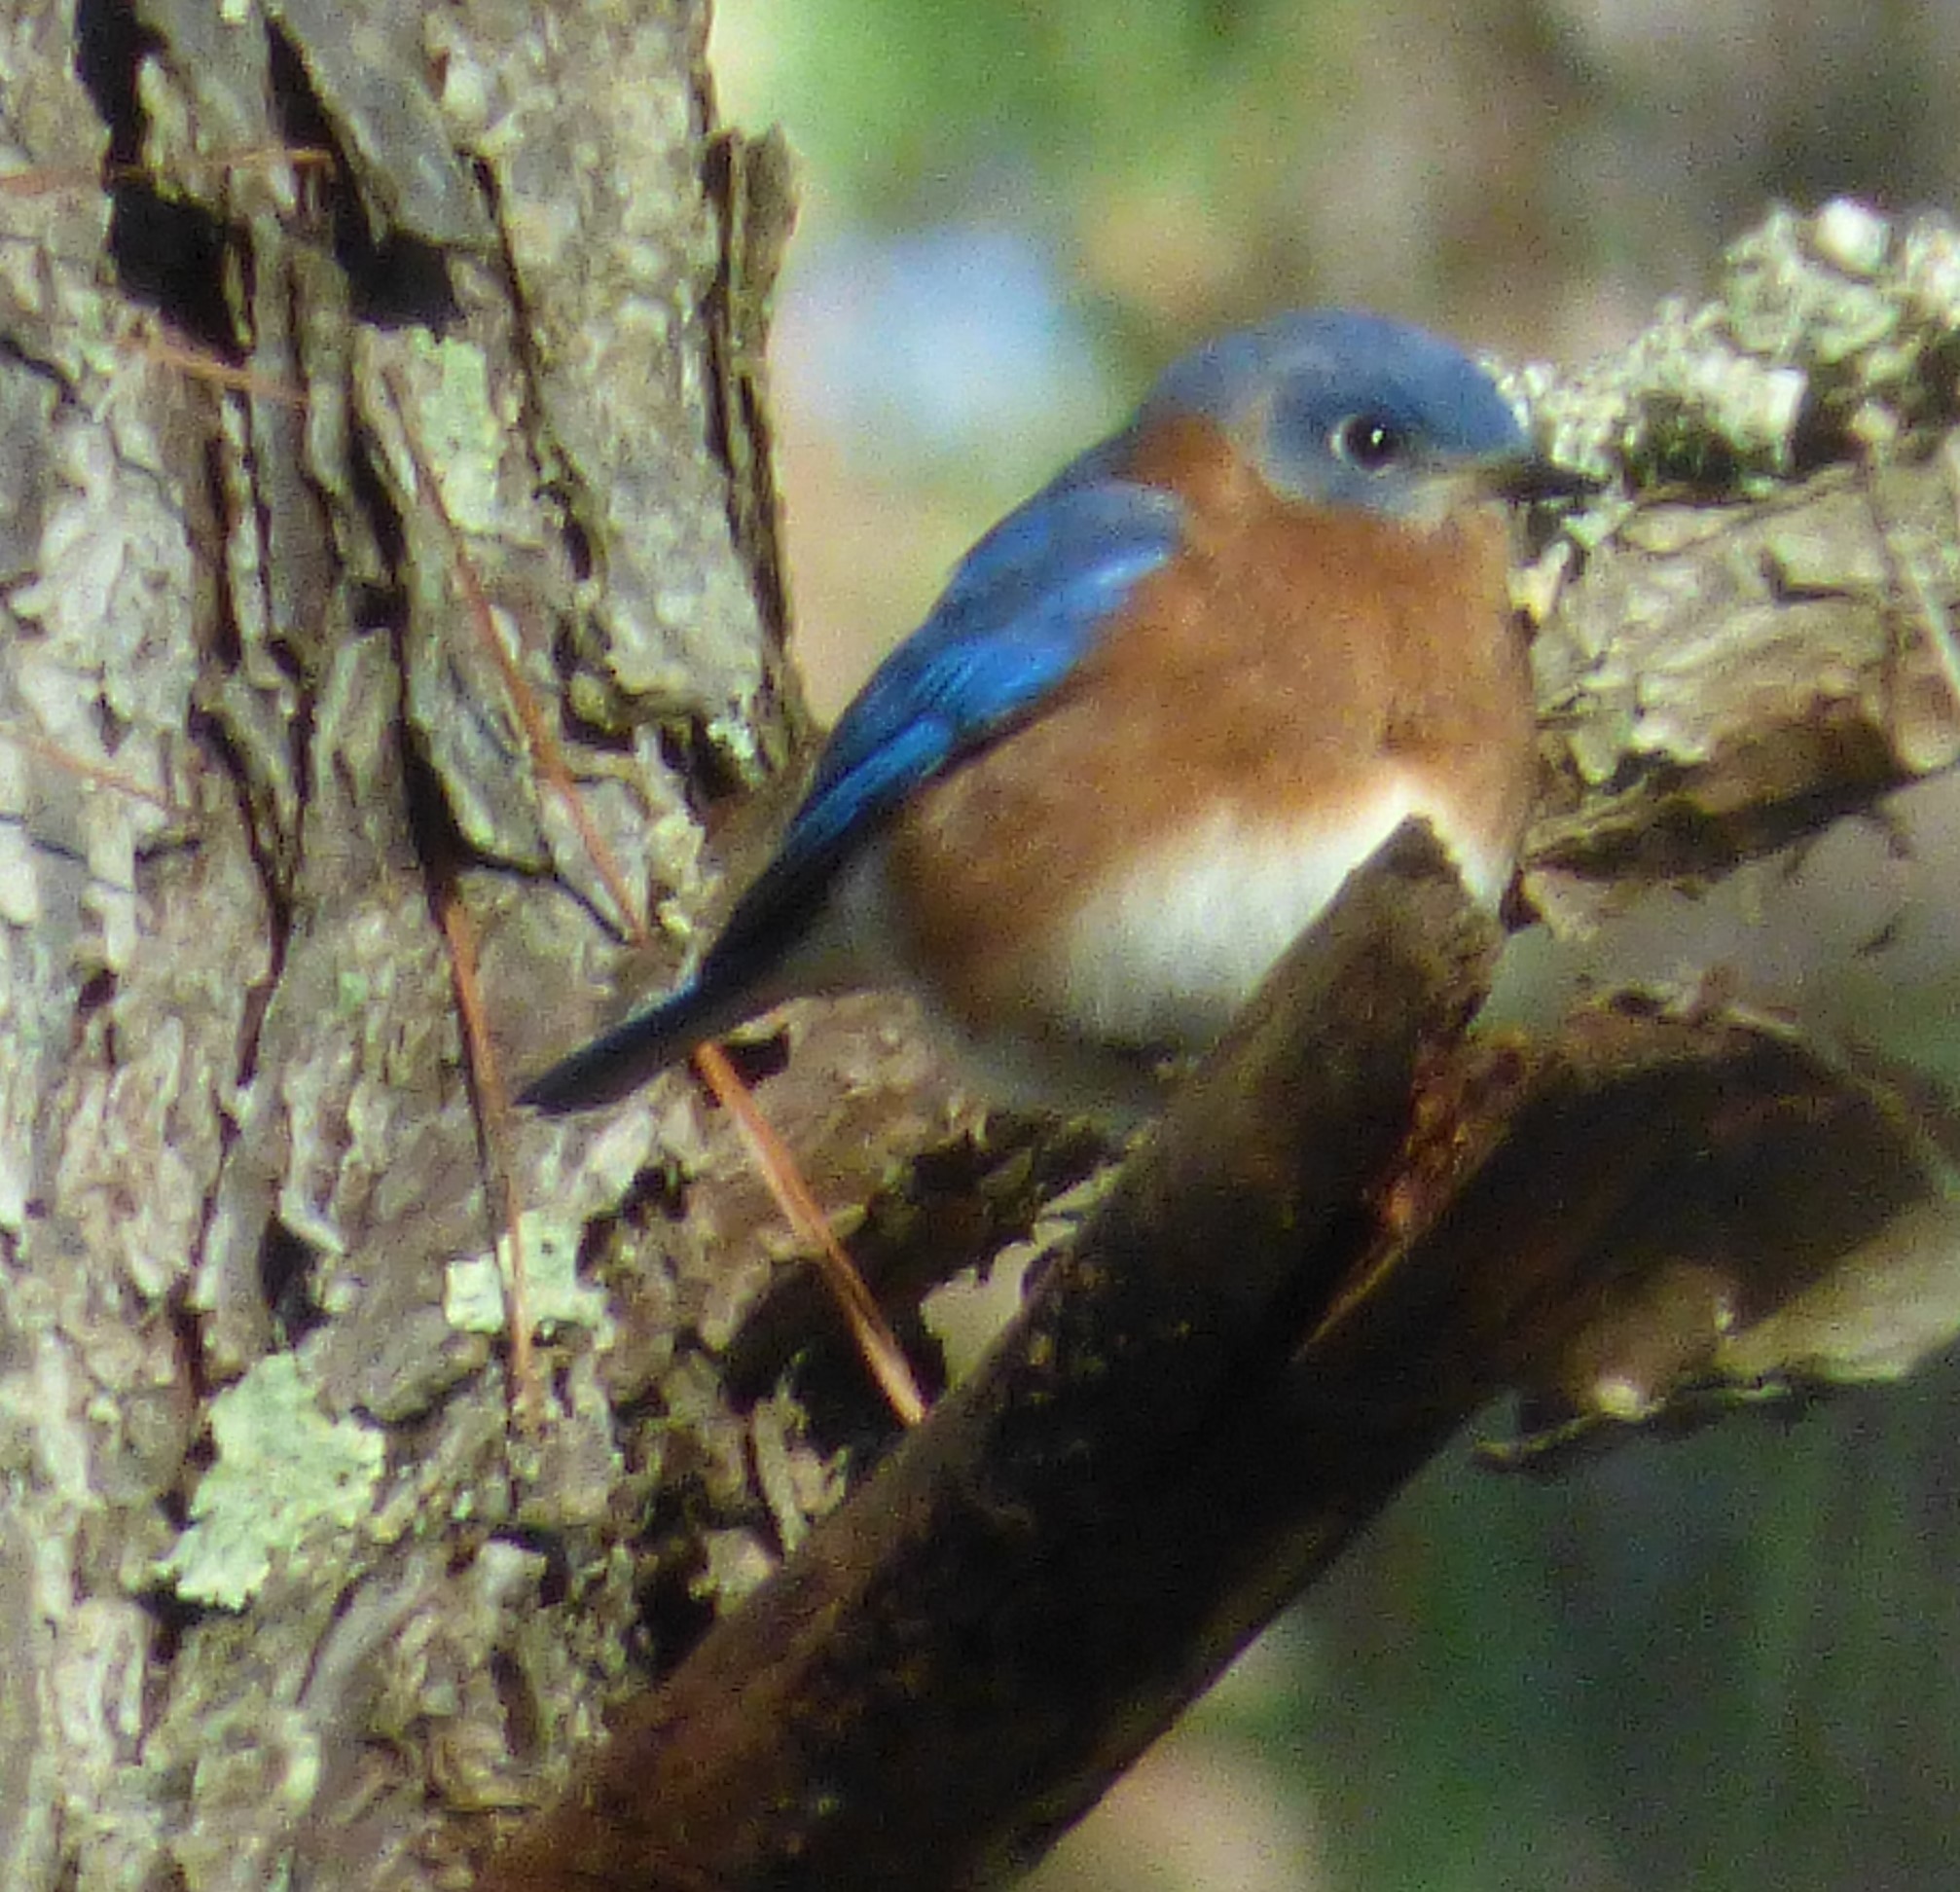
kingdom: Animalia
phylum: Chordata
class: Aves
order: Passeriformes
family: Turdidae
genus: Sialia
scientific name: Sialia sialis
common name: Eastern bluebird
